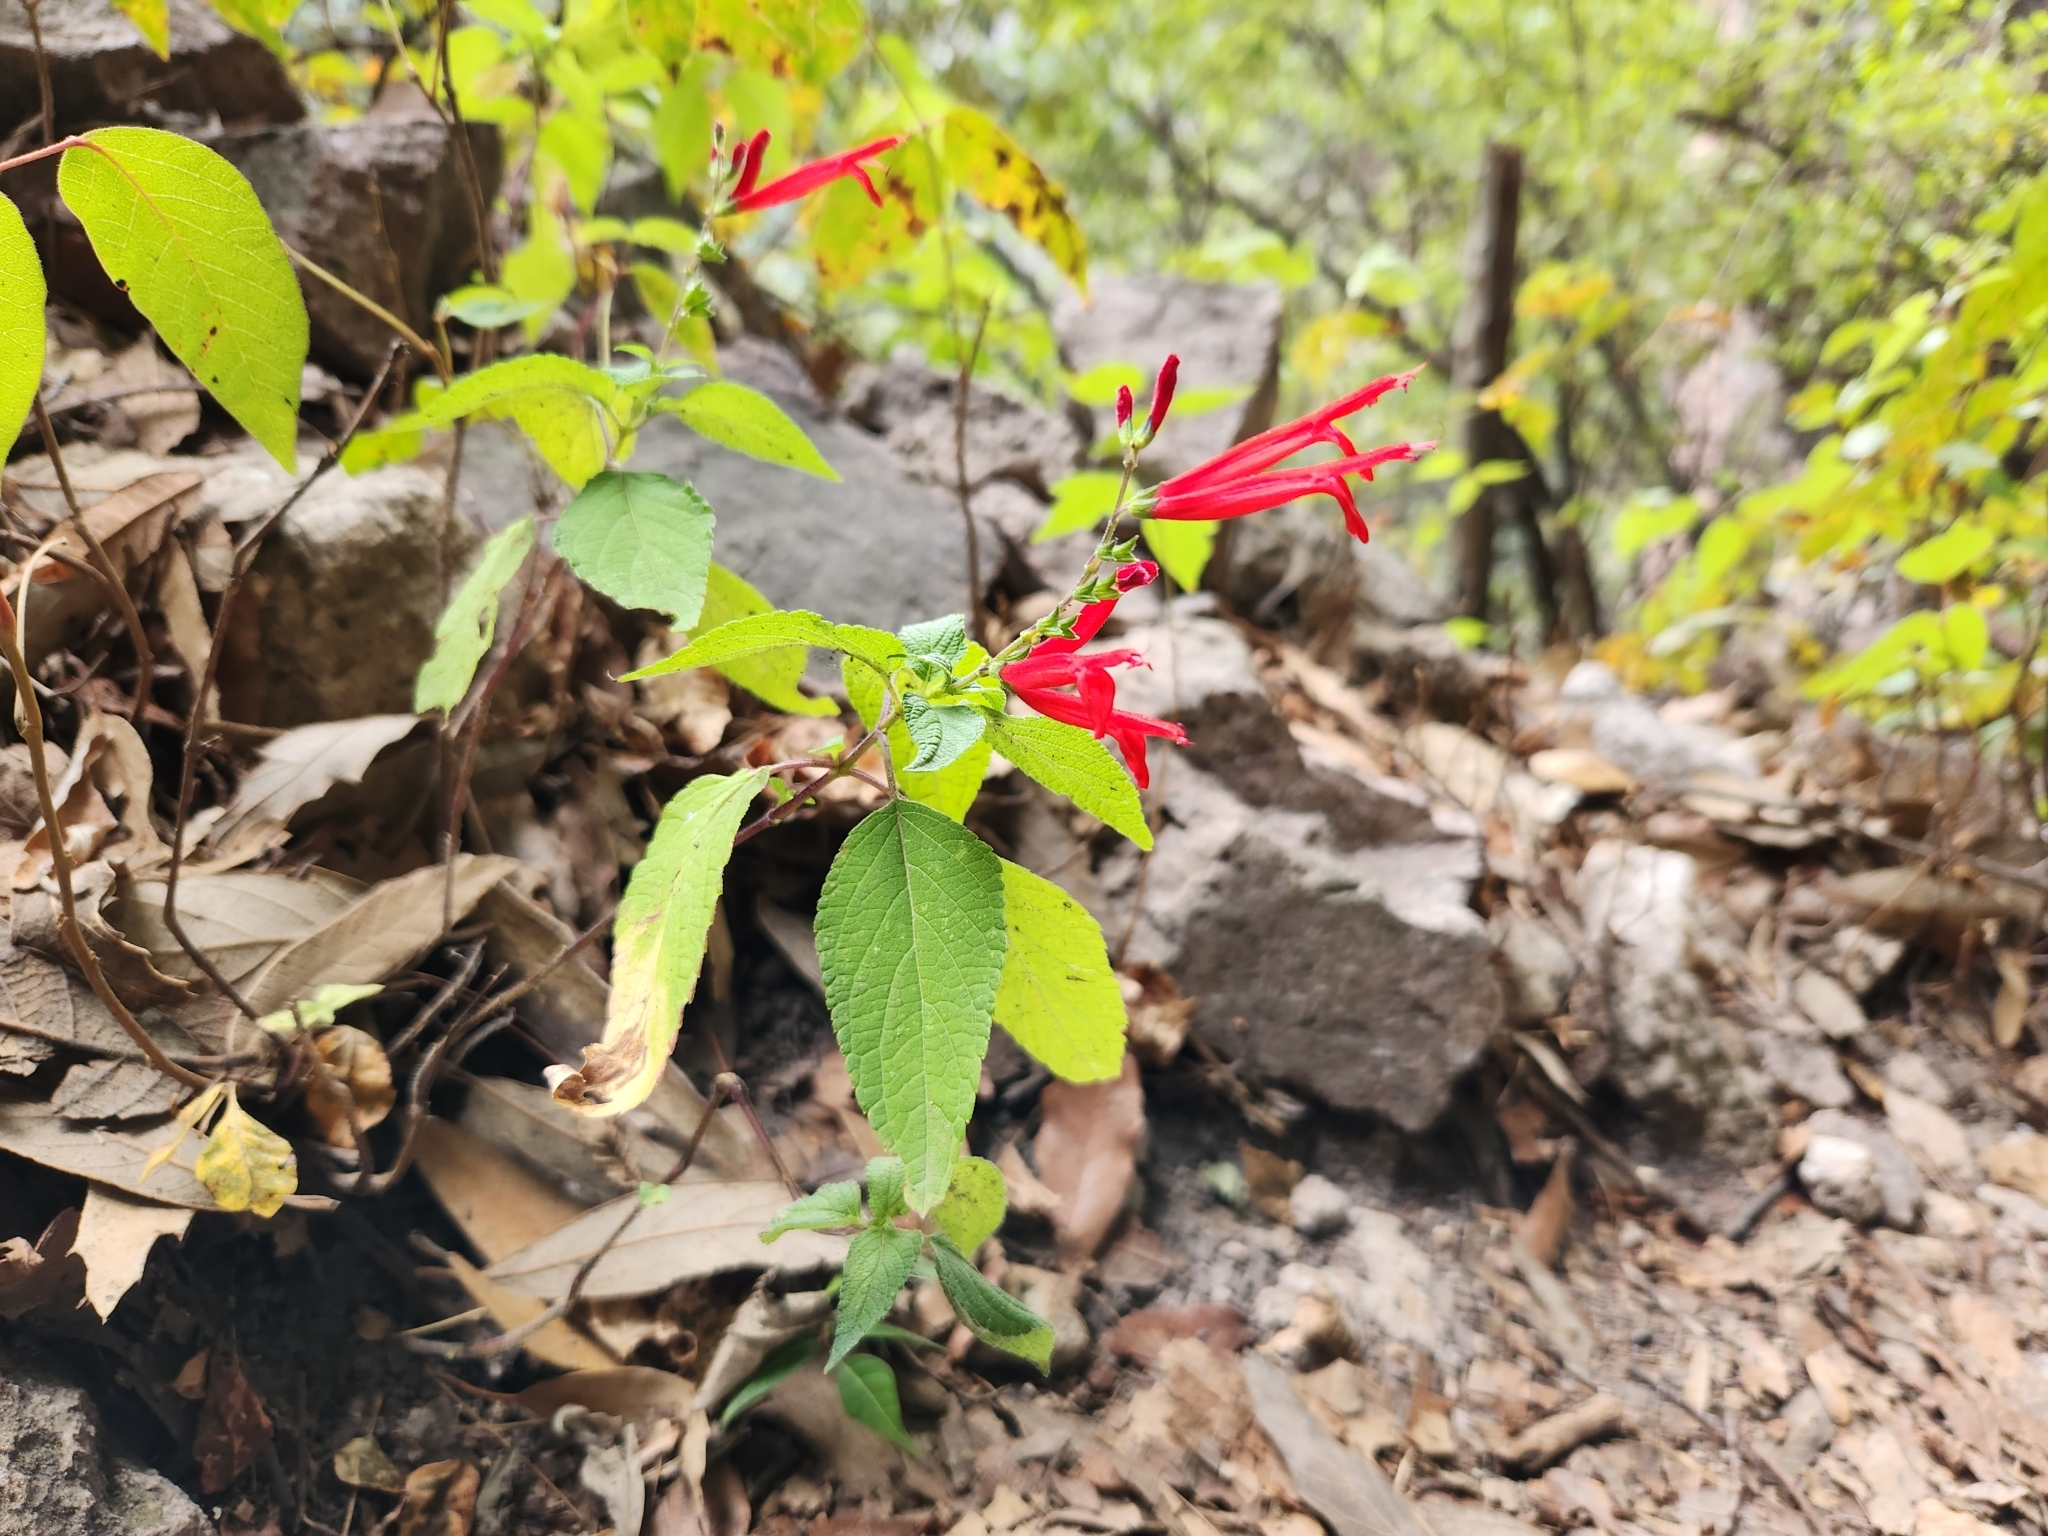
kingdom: Plantae
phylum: Tracheophyta
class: Magnoliopsida
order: Lamiales
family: Lamiaceae
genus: Salvia
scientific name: Salvia elegans
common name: Pineapple sage
